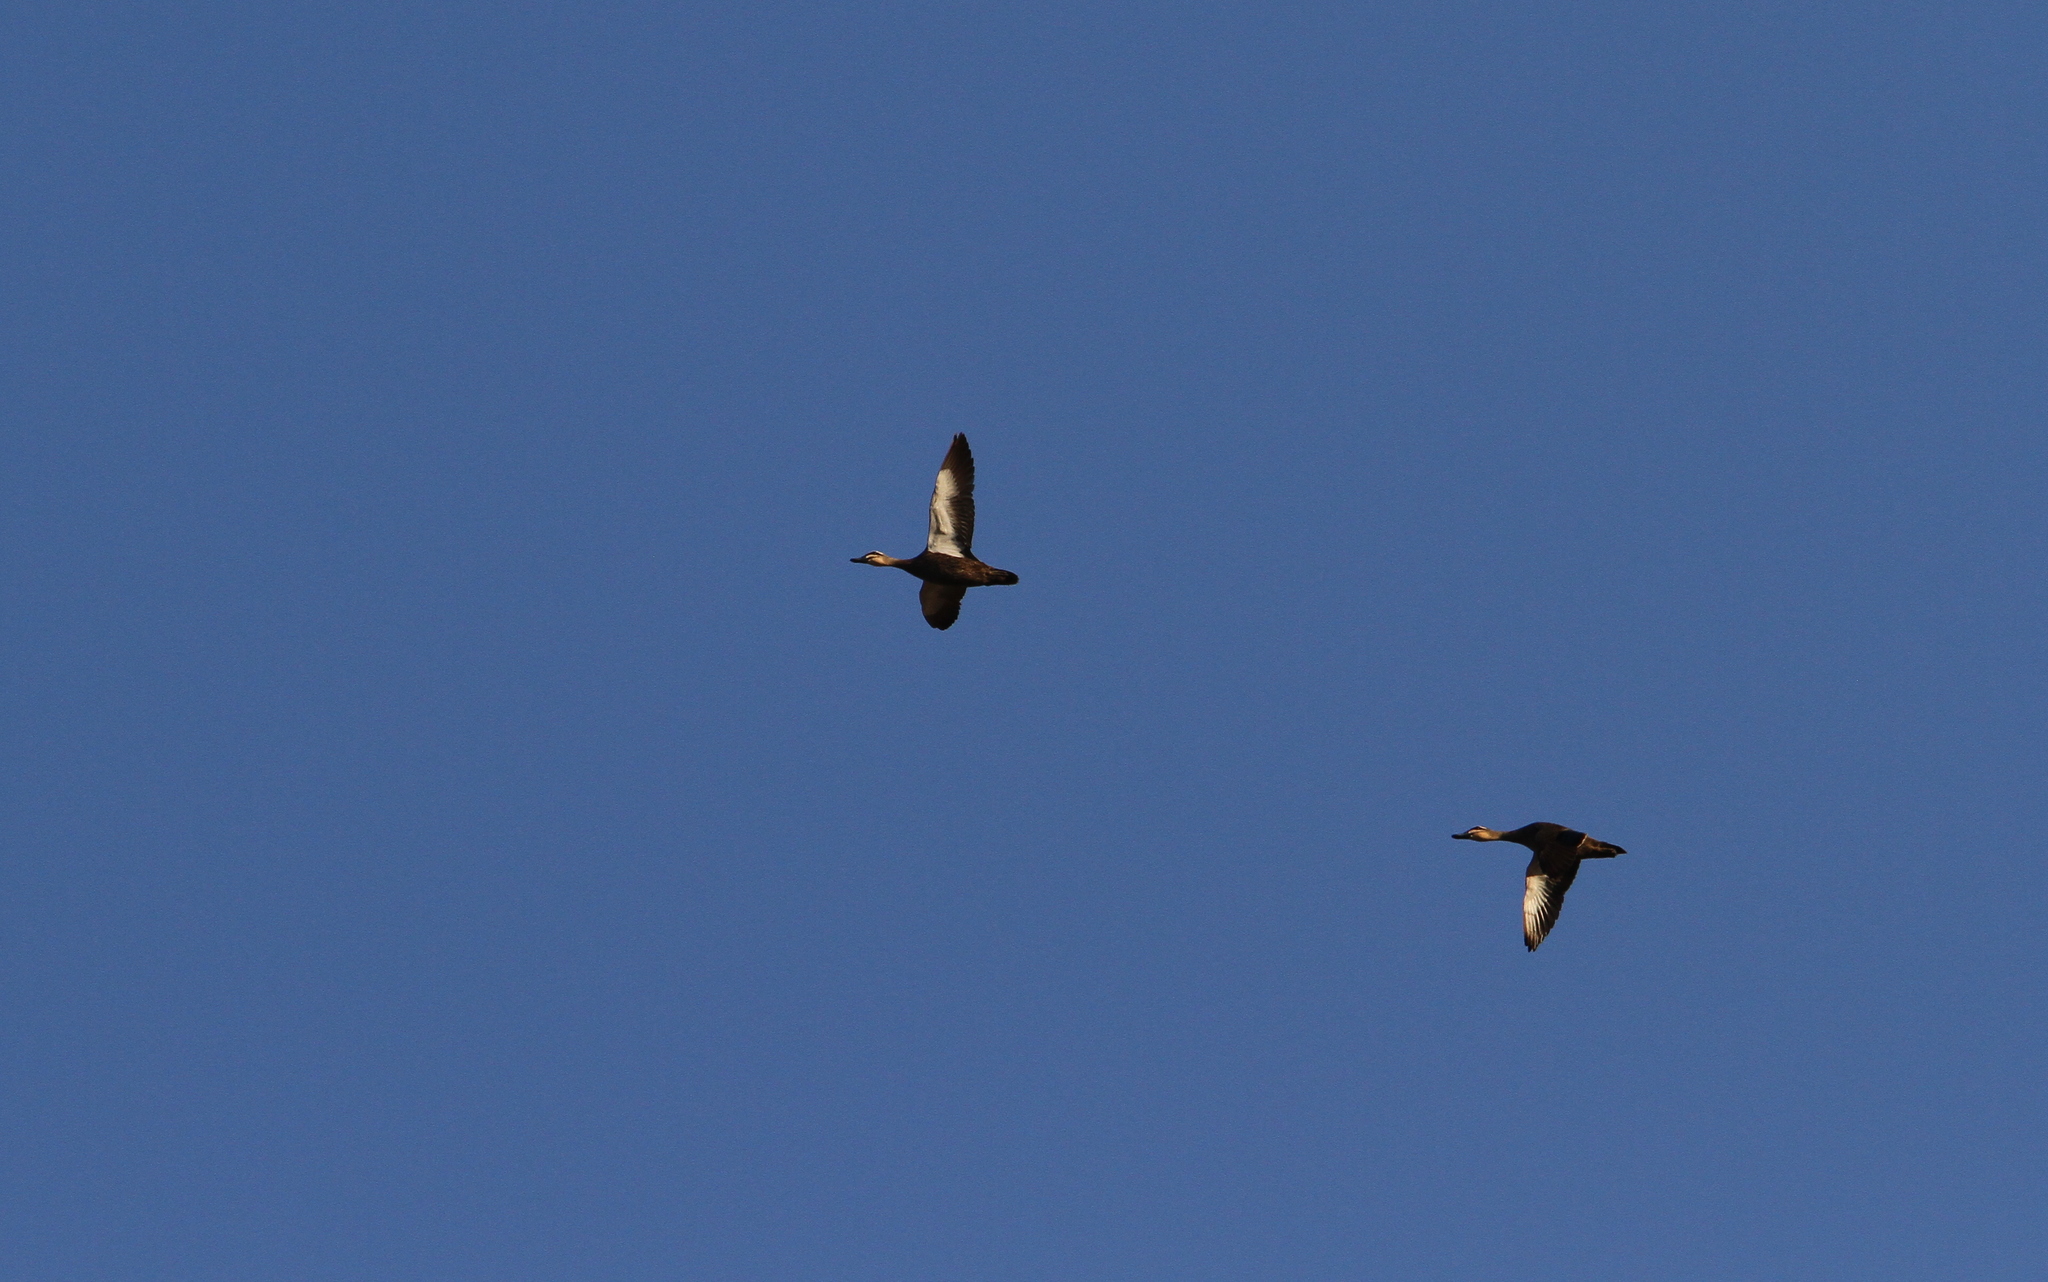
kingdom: Animalia
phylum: Chordata
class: Aves
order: Anseriformes
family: Anatidae
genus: Anas
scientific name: Anas superciliosa
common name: Pacific black duck
